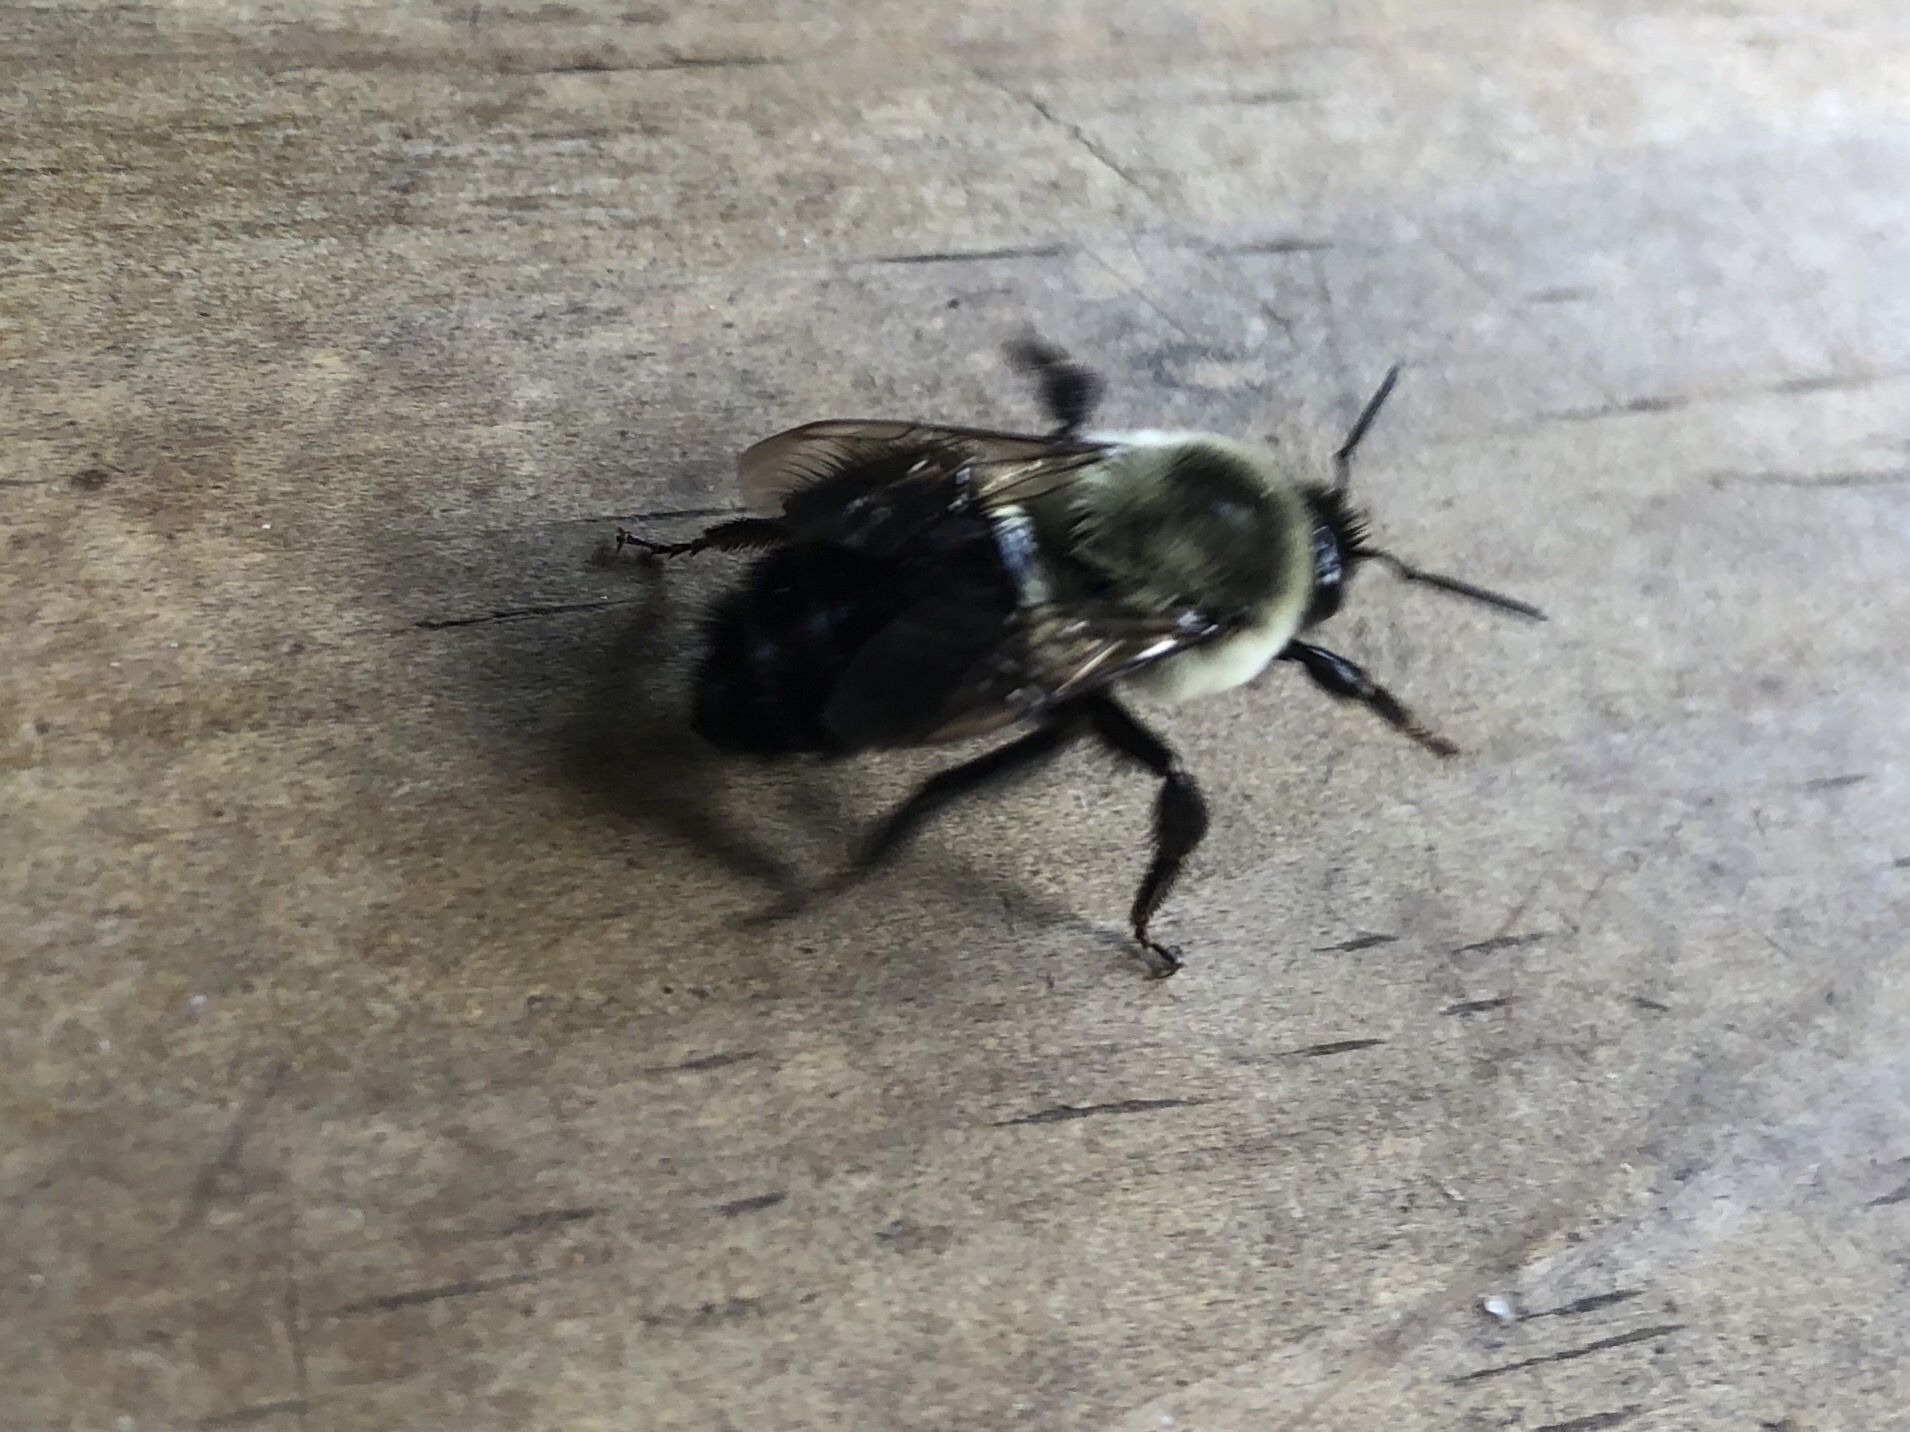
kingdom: Animalia
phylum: Arthropoda
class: Insecta
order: Hymenoptera
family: Apidae
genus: Bombus
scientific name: Bombus impatiens
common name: Common eastern bumble bee
